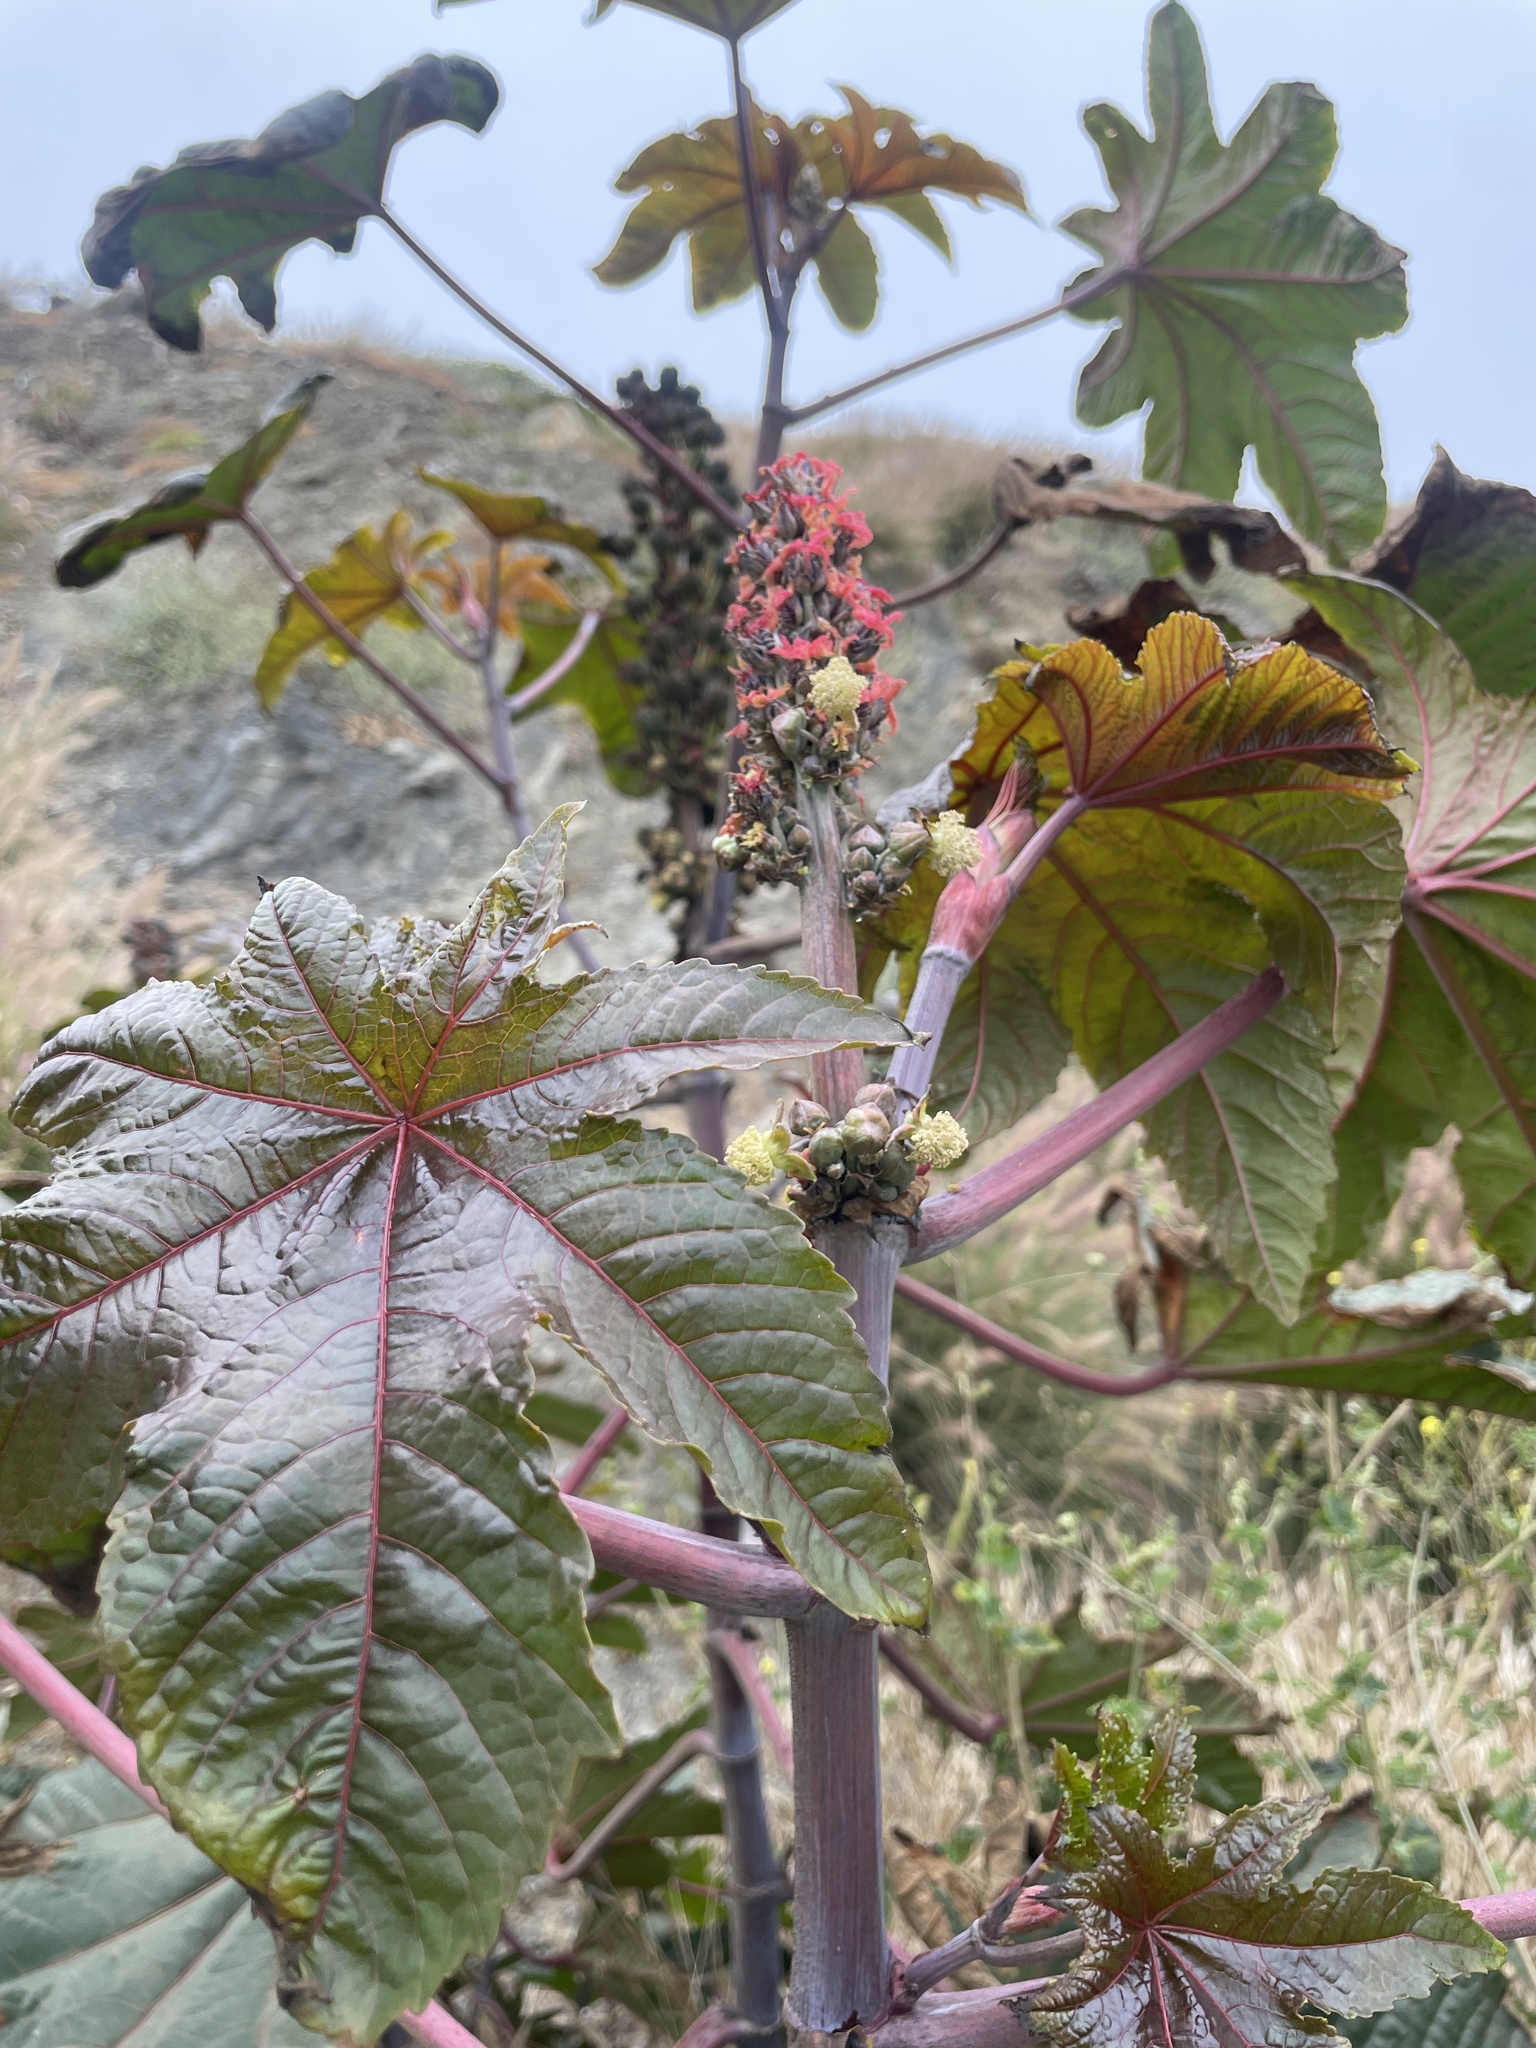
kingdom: Plantae
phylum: Tracheophyta
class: Magnoliopsida
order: Malpighiales
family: Euphorbiaceae
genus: Ricinus
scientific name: Ricinus communis
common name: Castor-oil-plant
